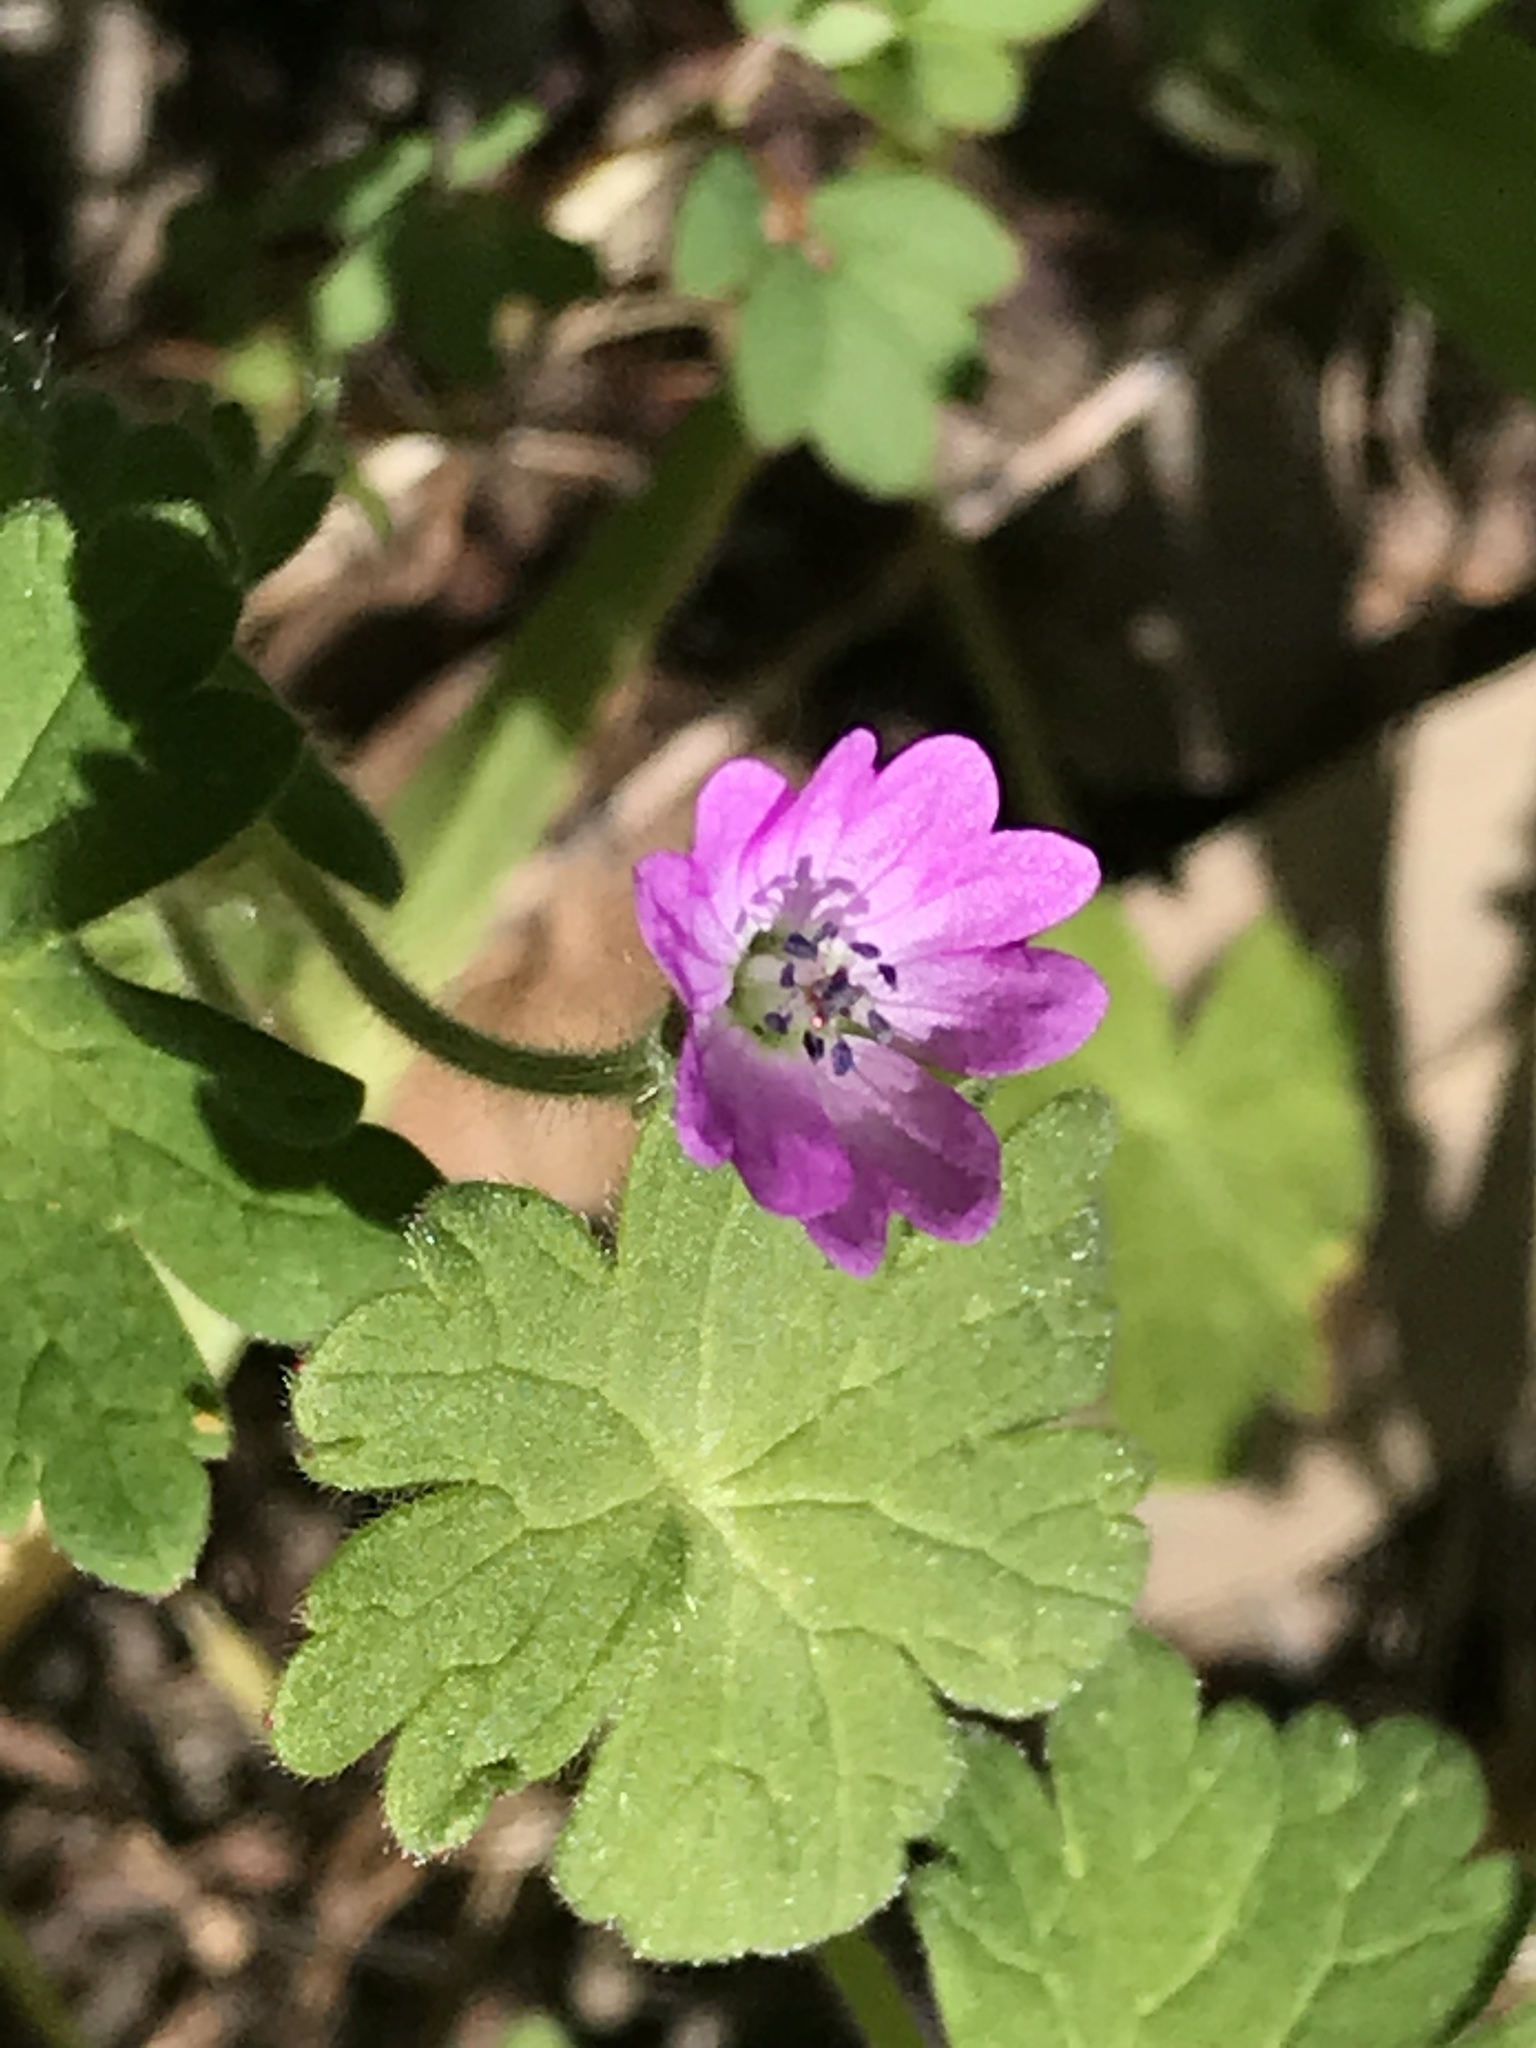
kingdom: Plantae
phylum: Tracheophyta
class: Magnoliopsida
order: Geraniales
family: Geraniaceae
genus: Geranium
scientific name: Geranium molle
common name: Dove's-foot crane's-bill
